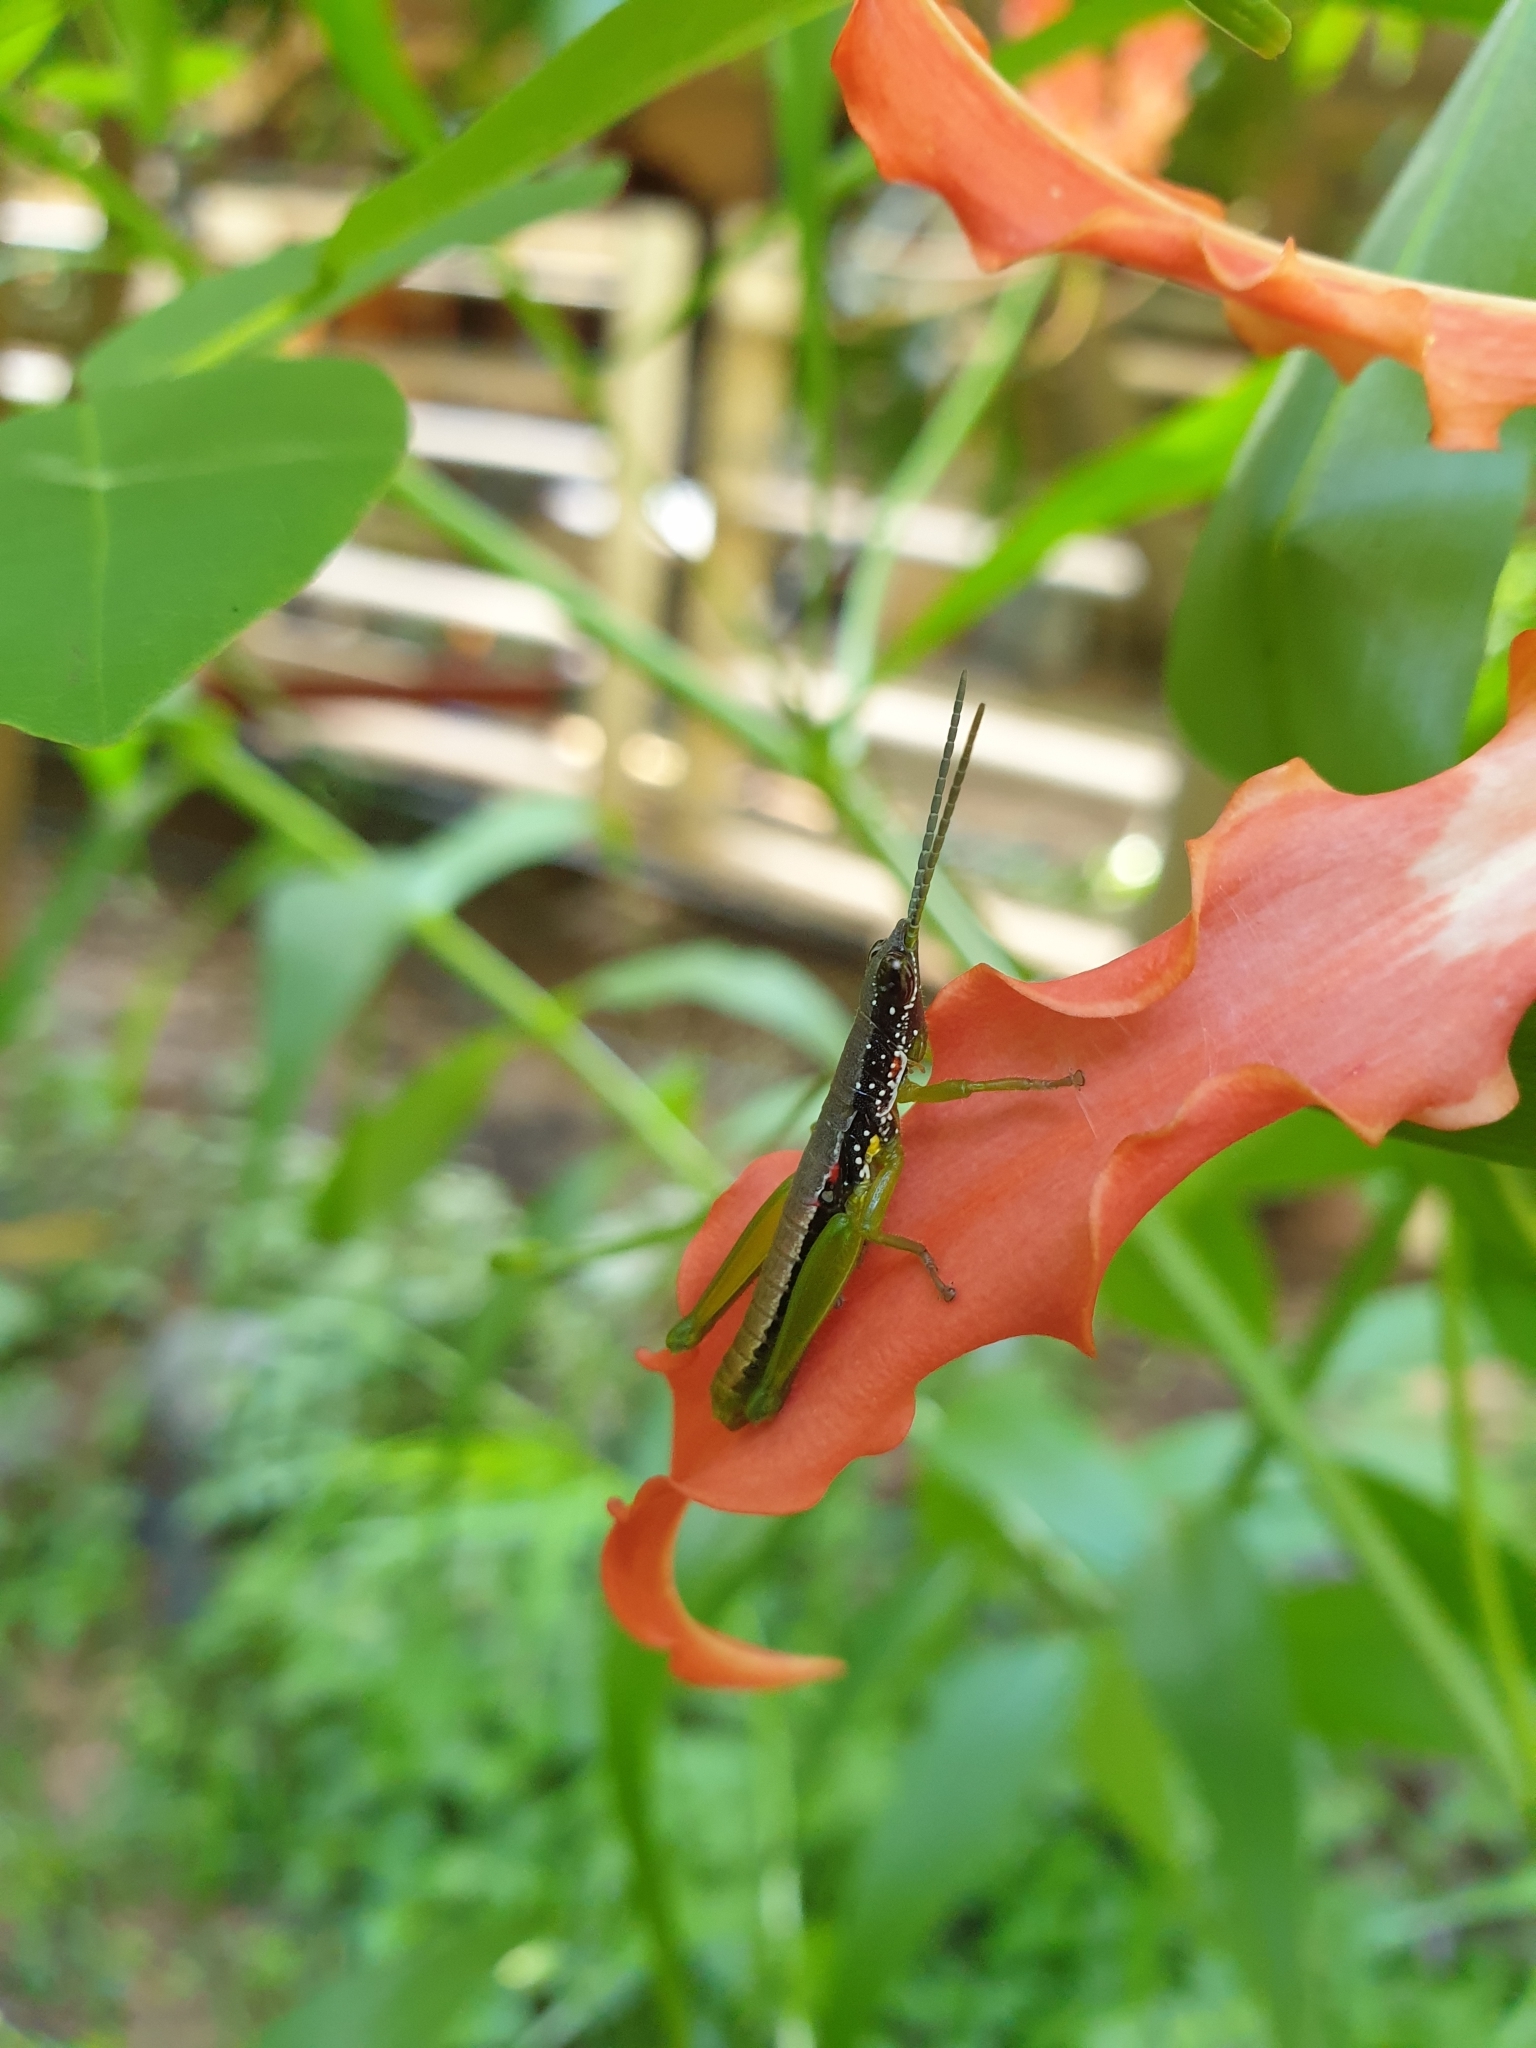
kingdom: Animalia
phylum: Arthropoda
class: Insecta
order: Orthoptera
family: Pyrgomorphidae
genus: Orthacris
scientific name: Orthacris ceylonica
